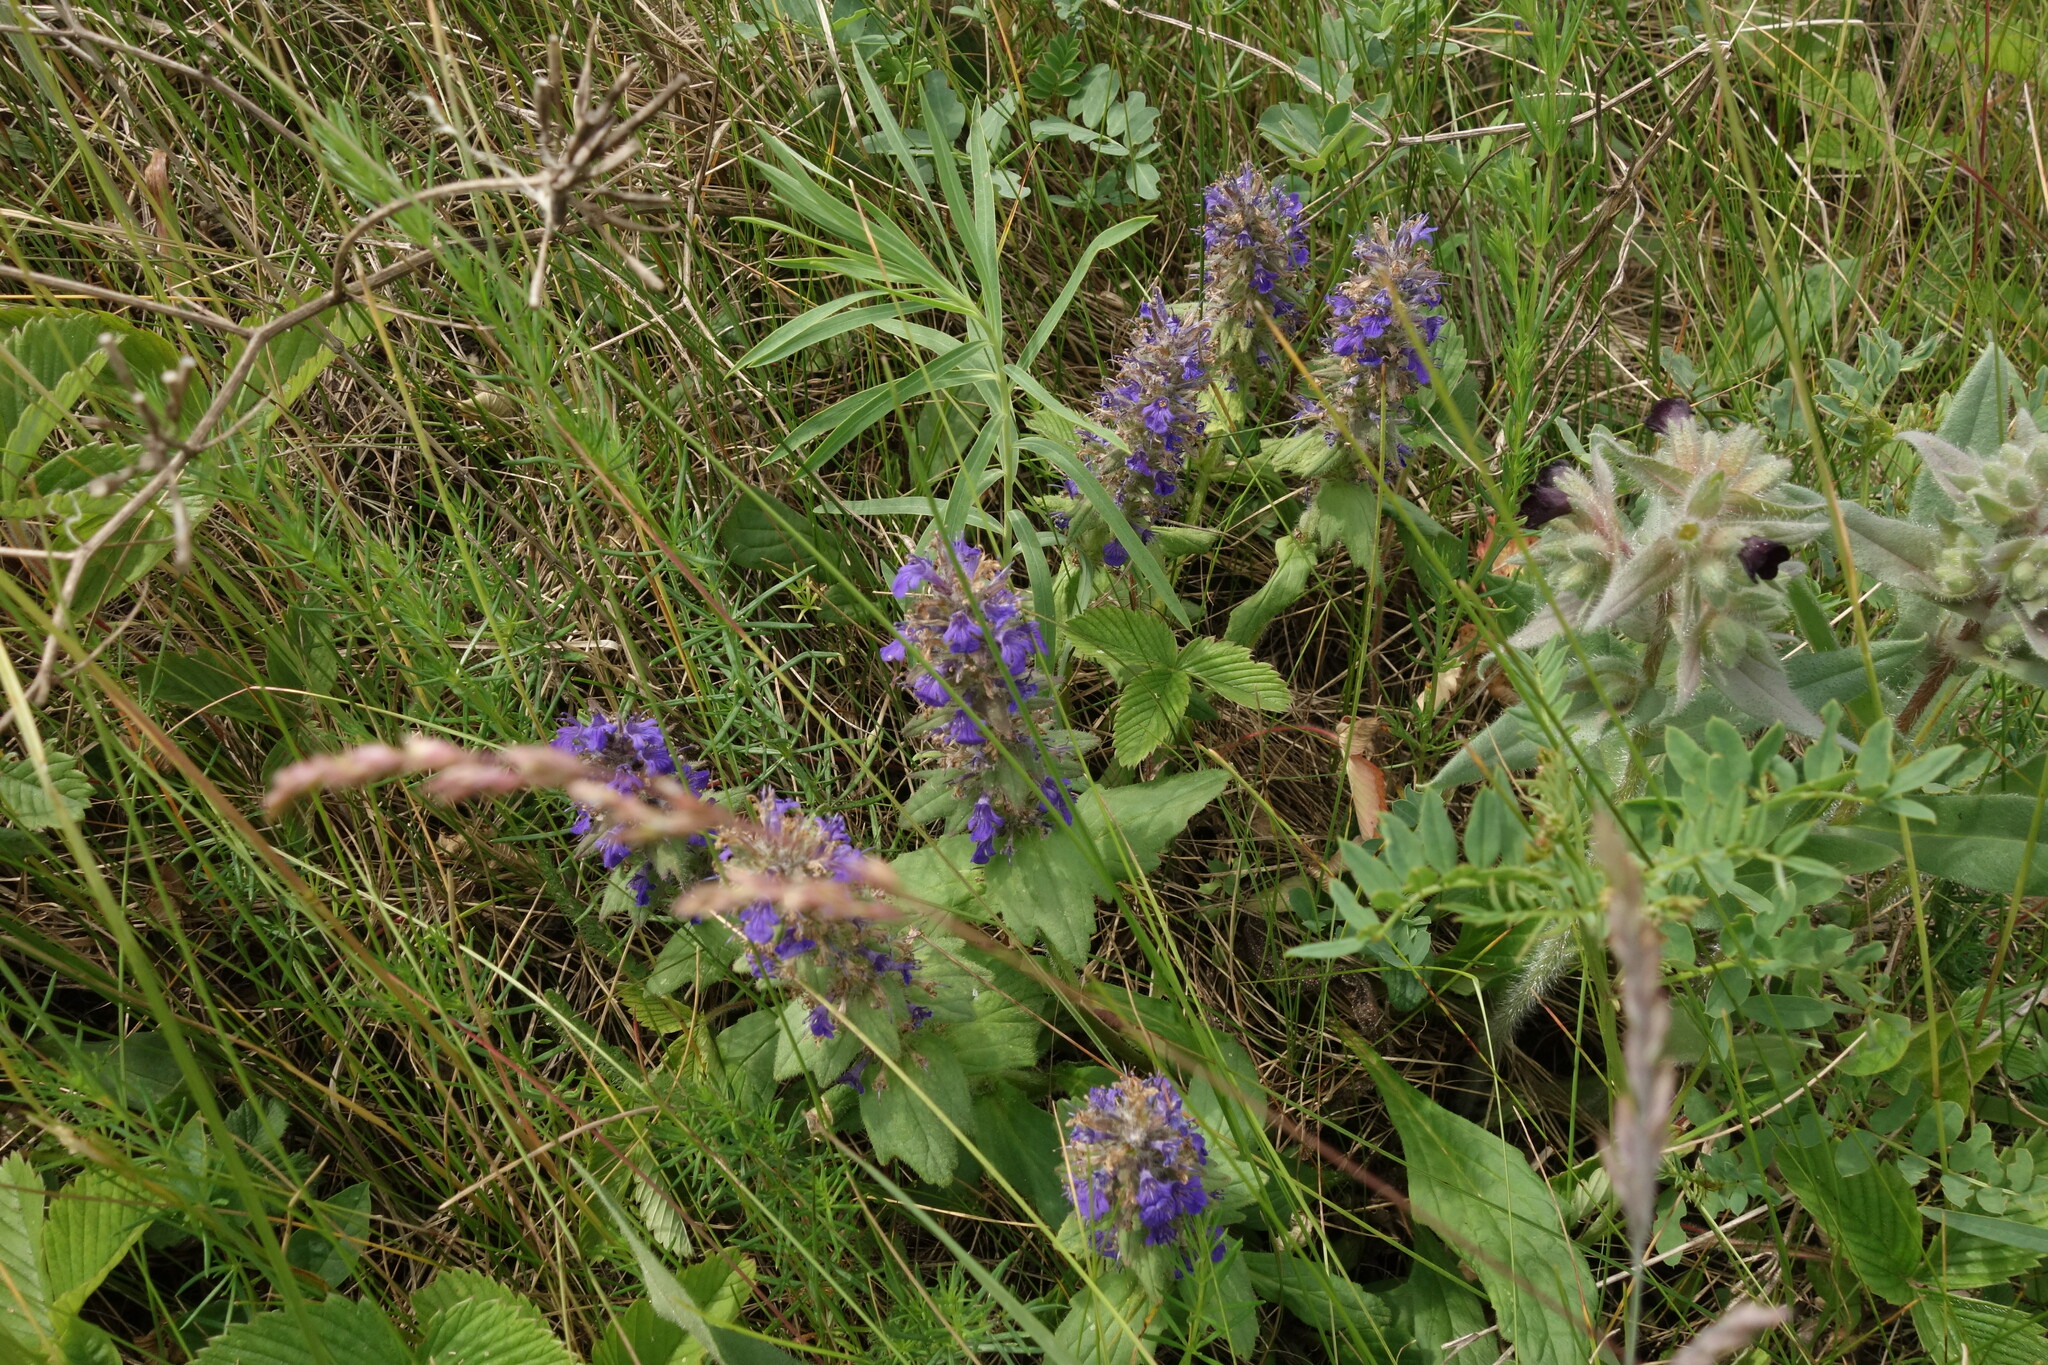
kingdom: Plantae
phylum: Tracheophyta
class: Magnoliopsida
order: Lamiales
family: Lamiaceae
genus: Ajuga
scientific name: Ajuga genevensis
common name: Blue bugle
